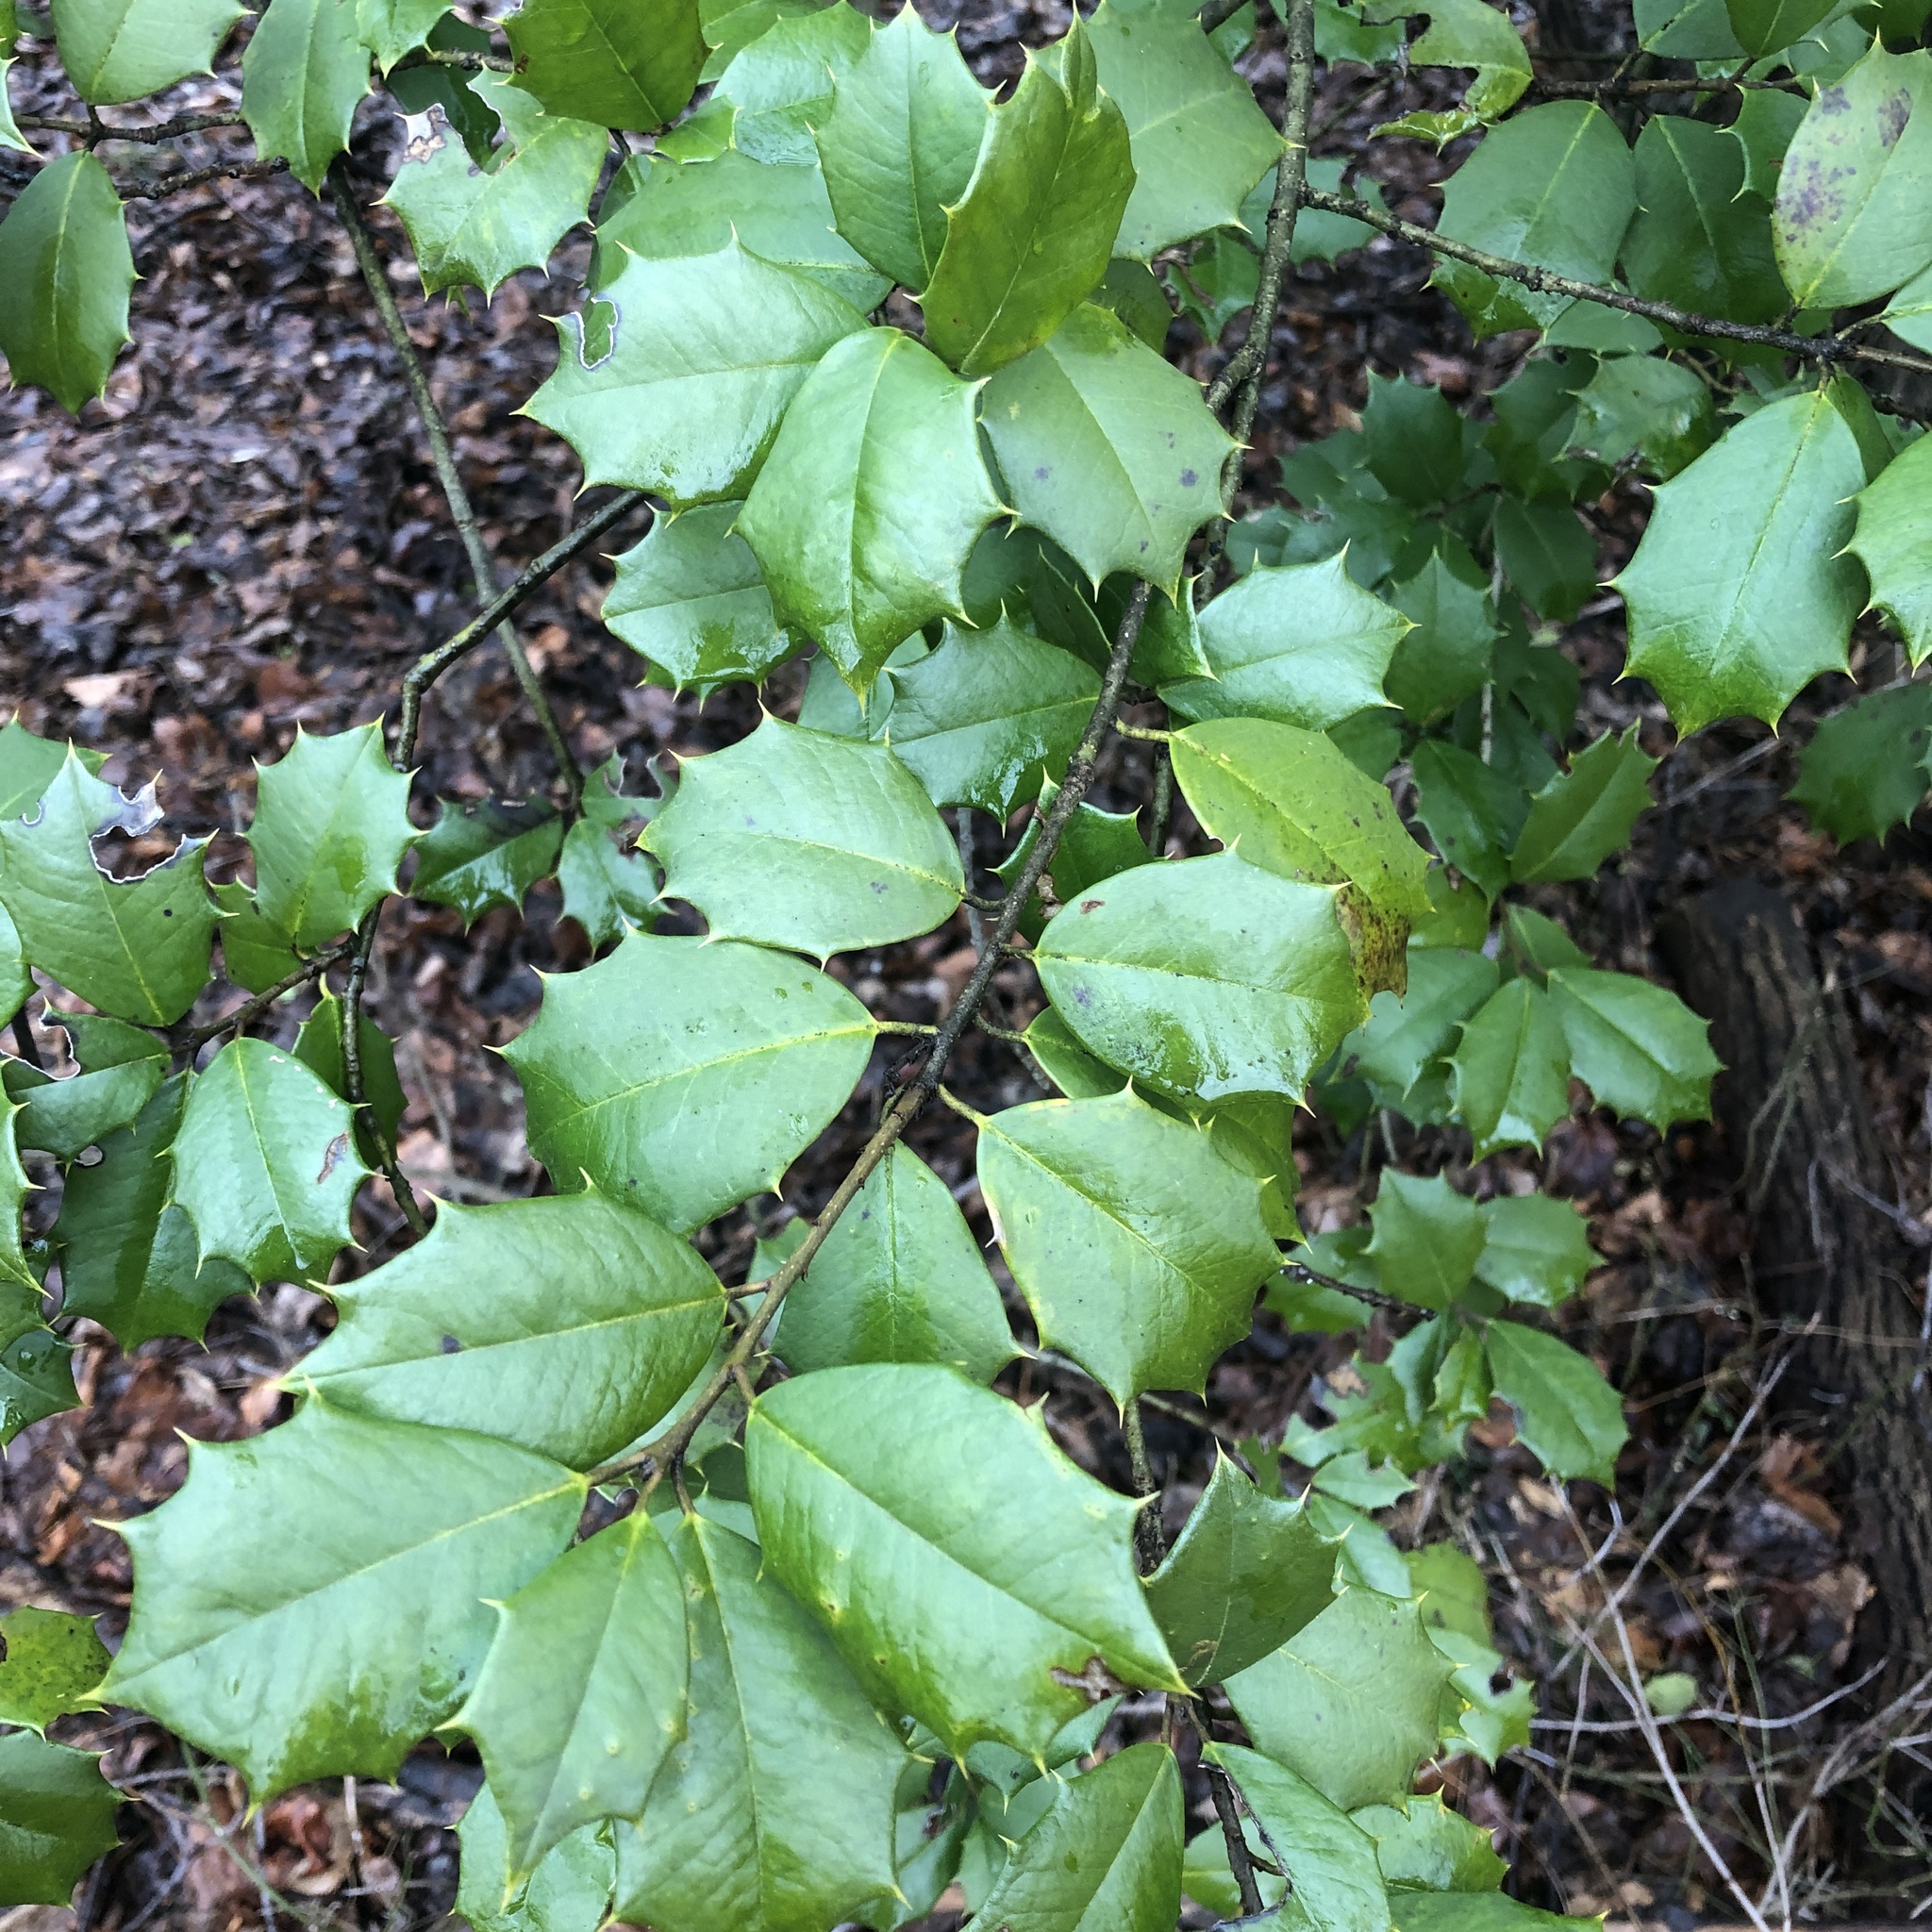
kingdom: Plantae
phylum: Tracheophyta
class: Magnoliopsida
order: Aquifoliales
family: Aquifoliaceae
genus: Ilex
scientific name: Ilex opaca
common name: American holly
